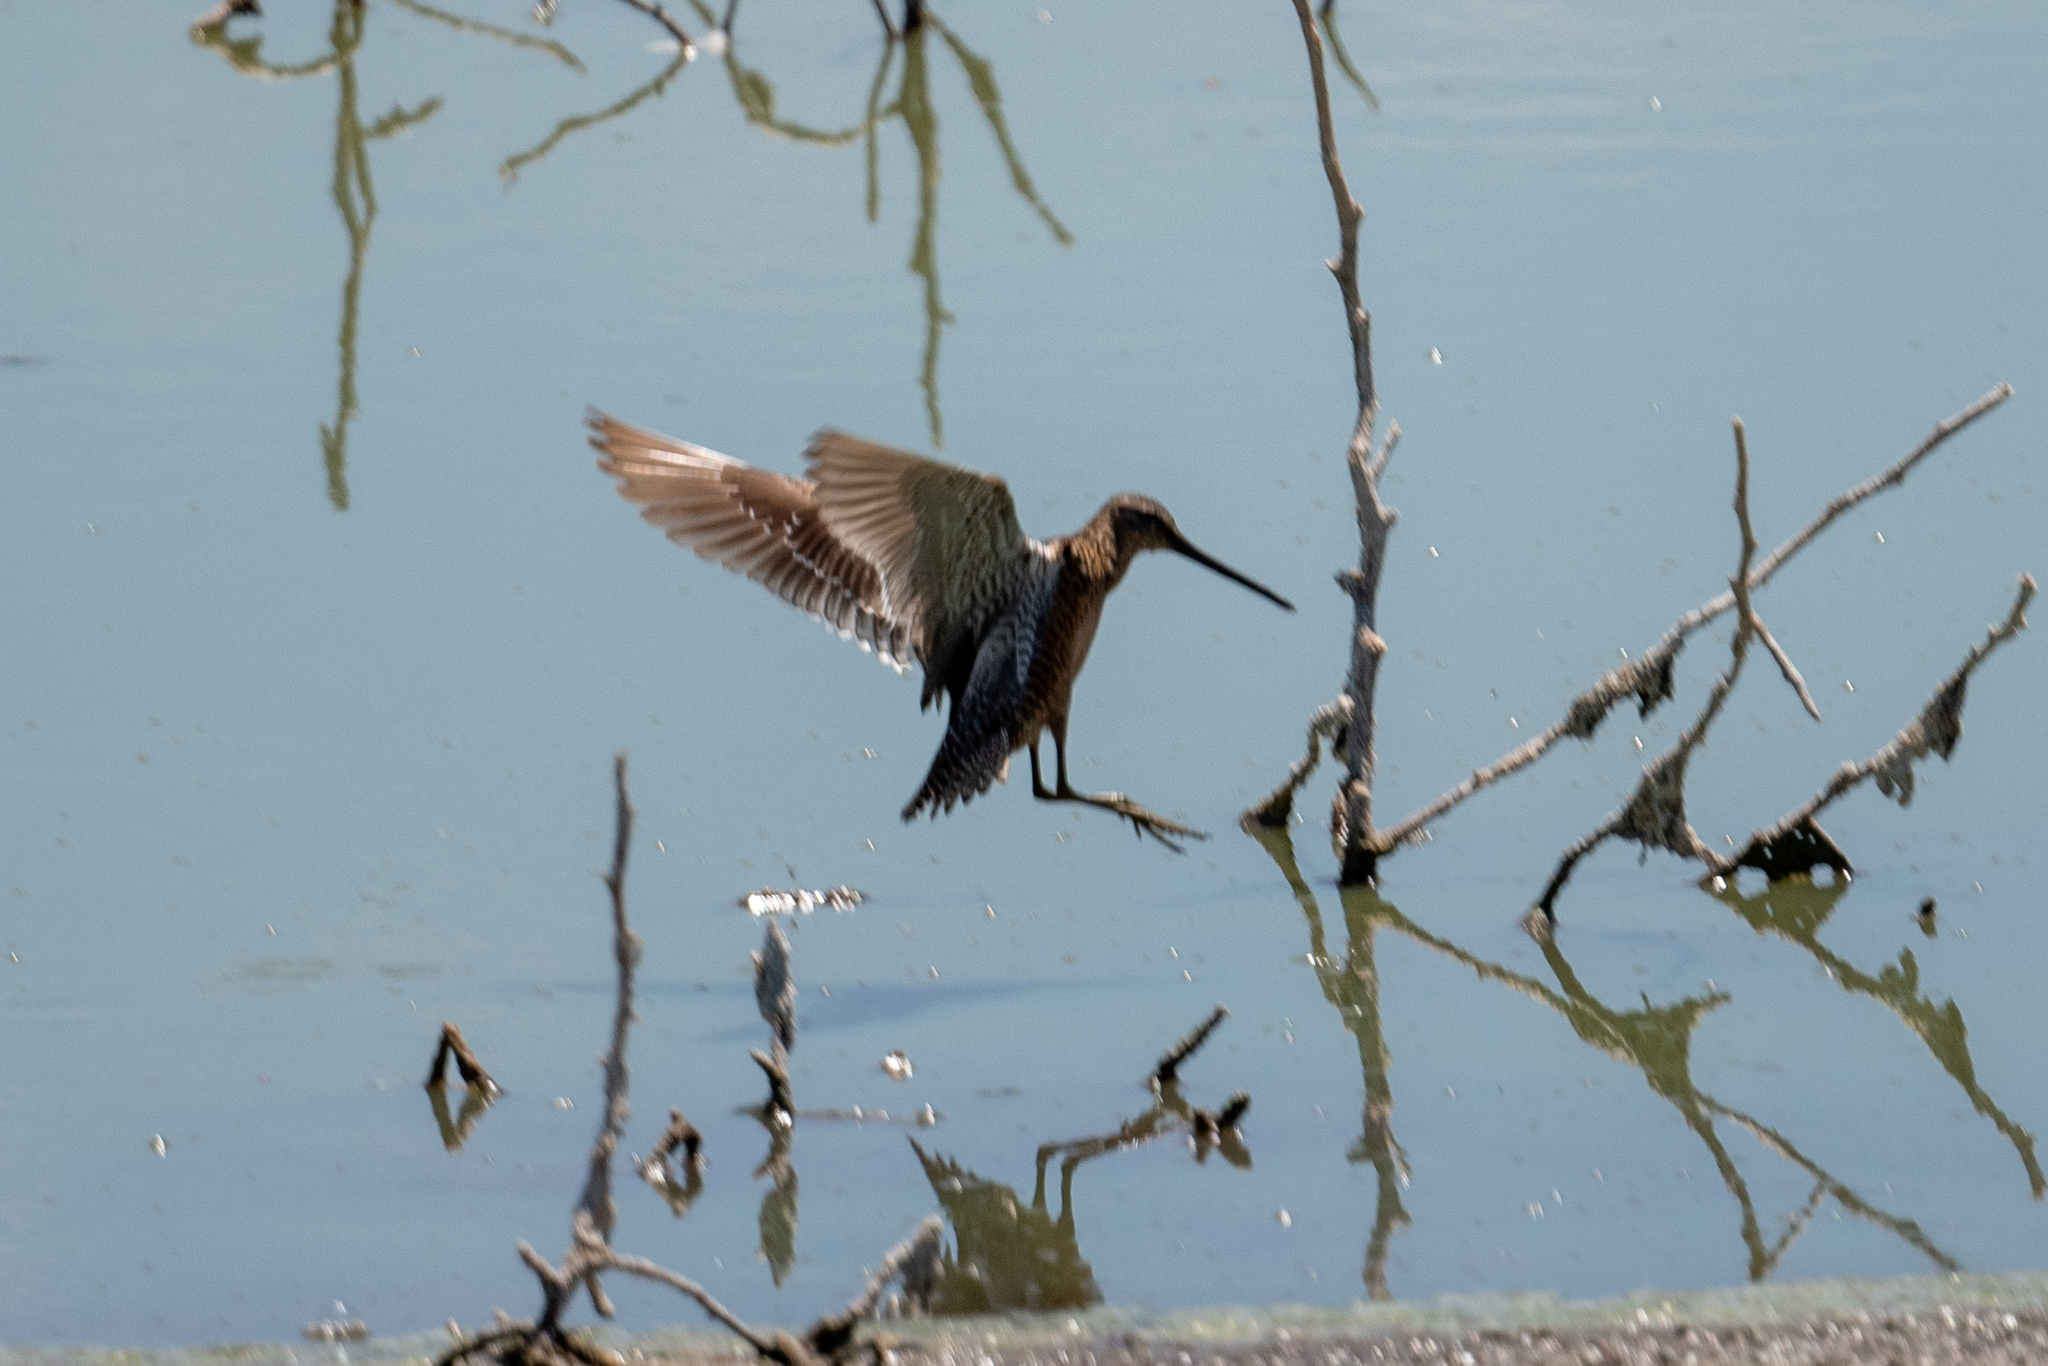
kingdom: Animalia
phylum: Chordata
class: Aves
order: Charadriiformes
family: Scolopacidae
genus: Limnodromus
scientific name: Limnodromus scolopaceus
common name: Long-billed dowitcher
